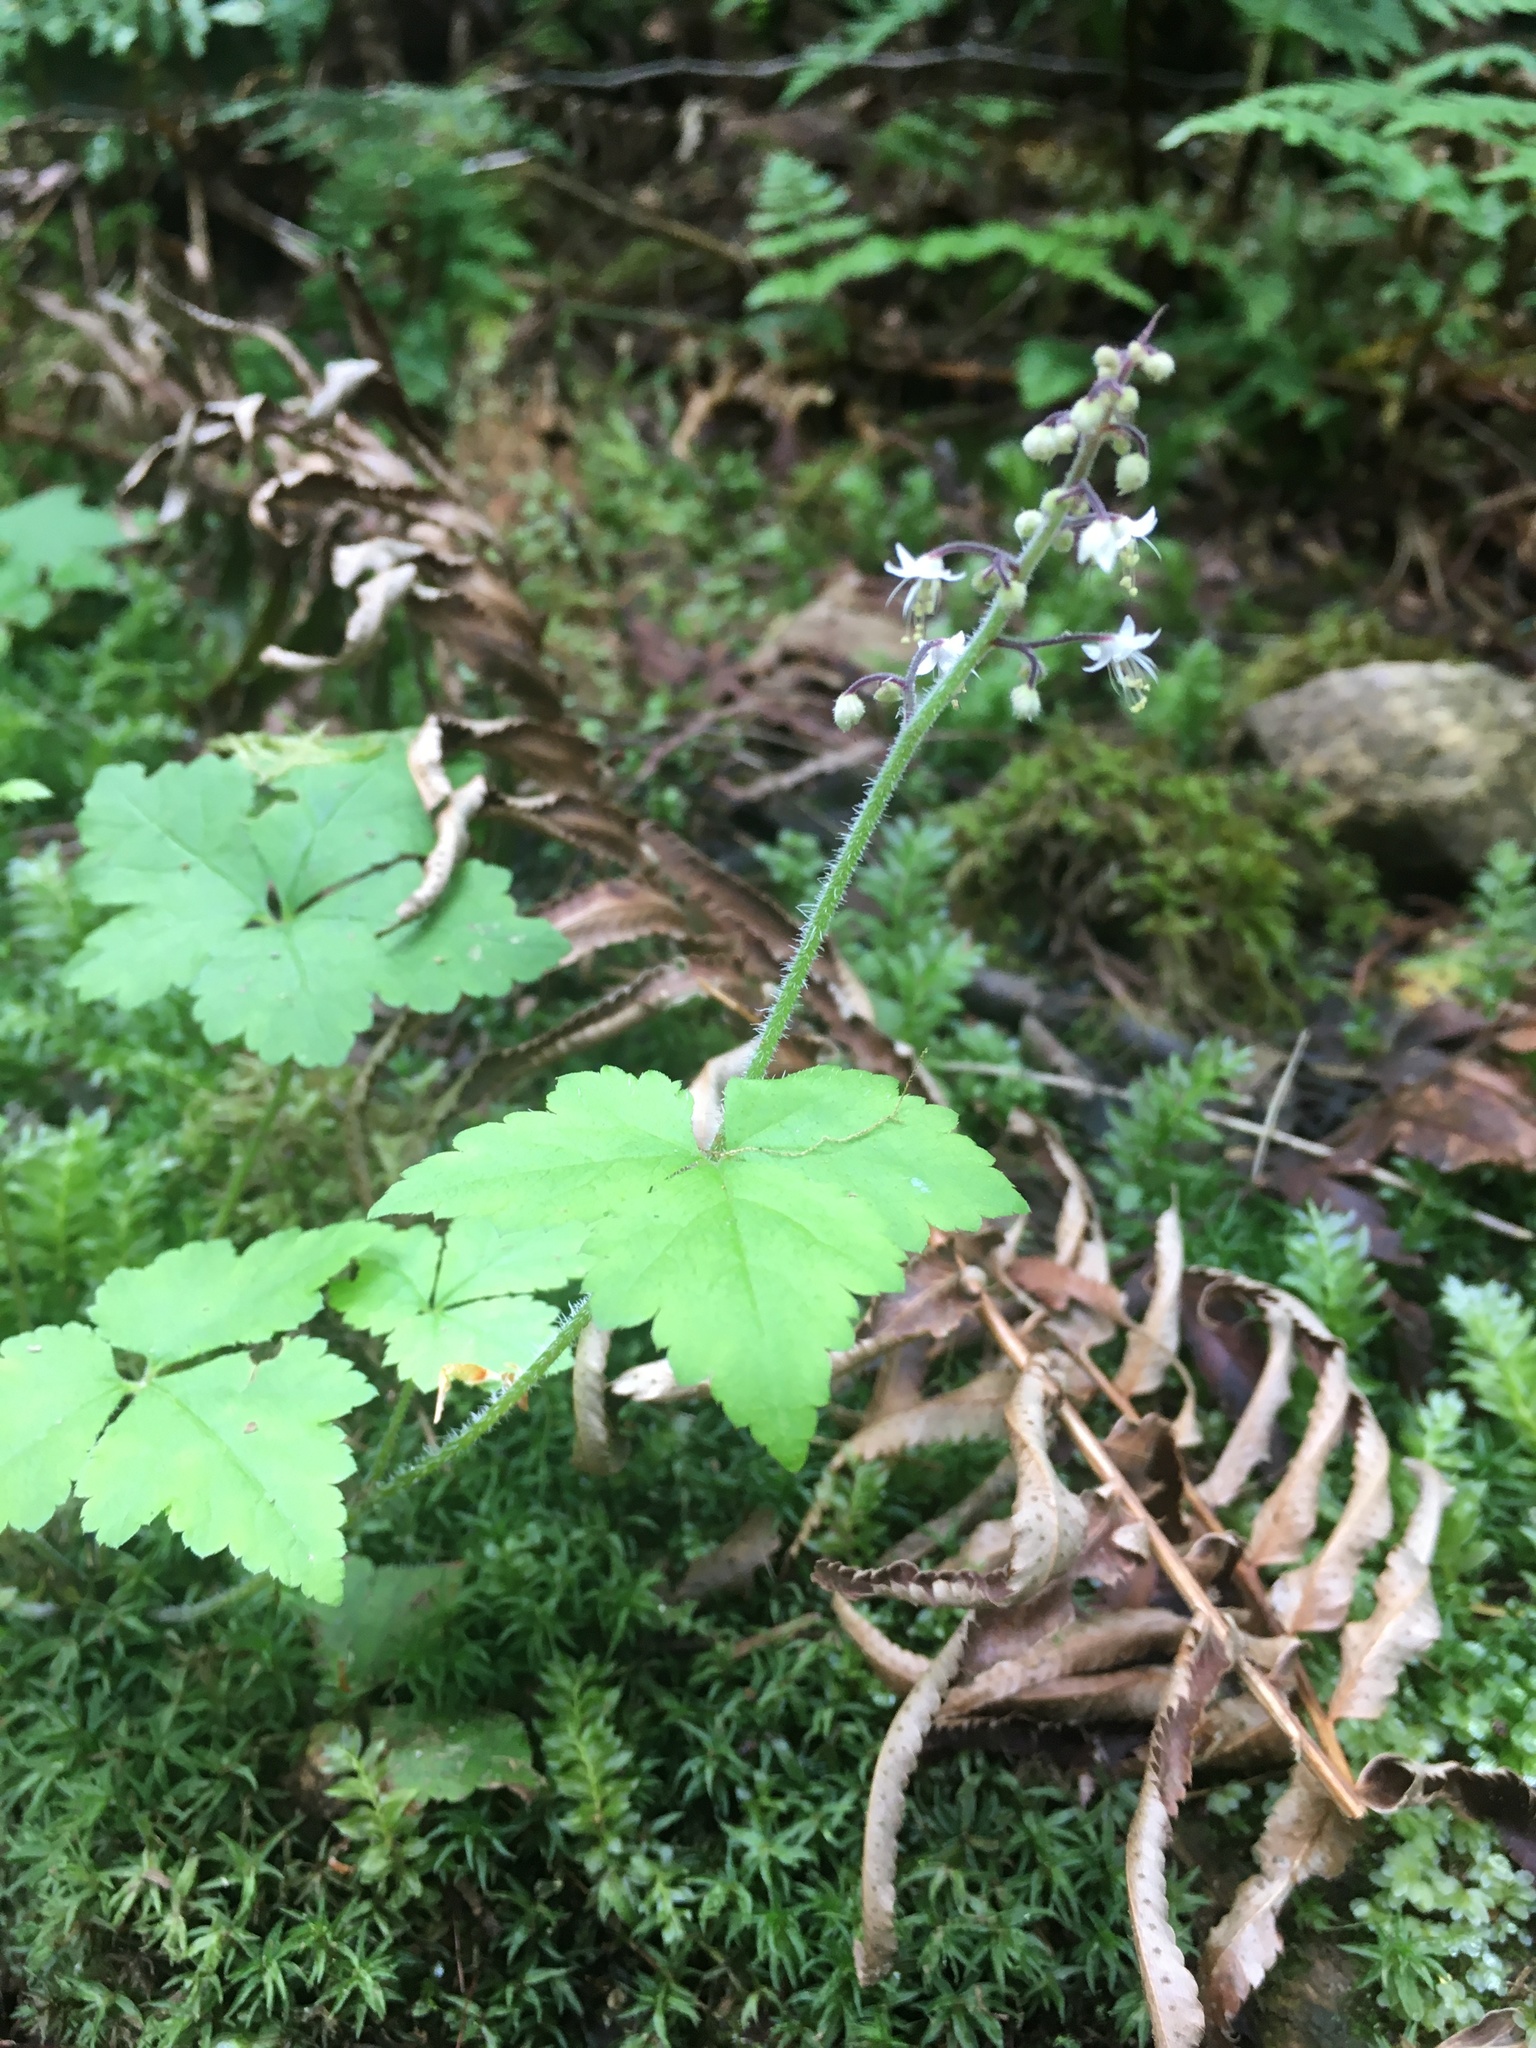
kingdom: Plantae
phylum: Tracheophyta
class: Magnoliopsida
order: Saxifragales
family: Saxifragaceae
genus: Tiarella
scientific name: Tiarella trifoliata
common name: Sugar-scoop
